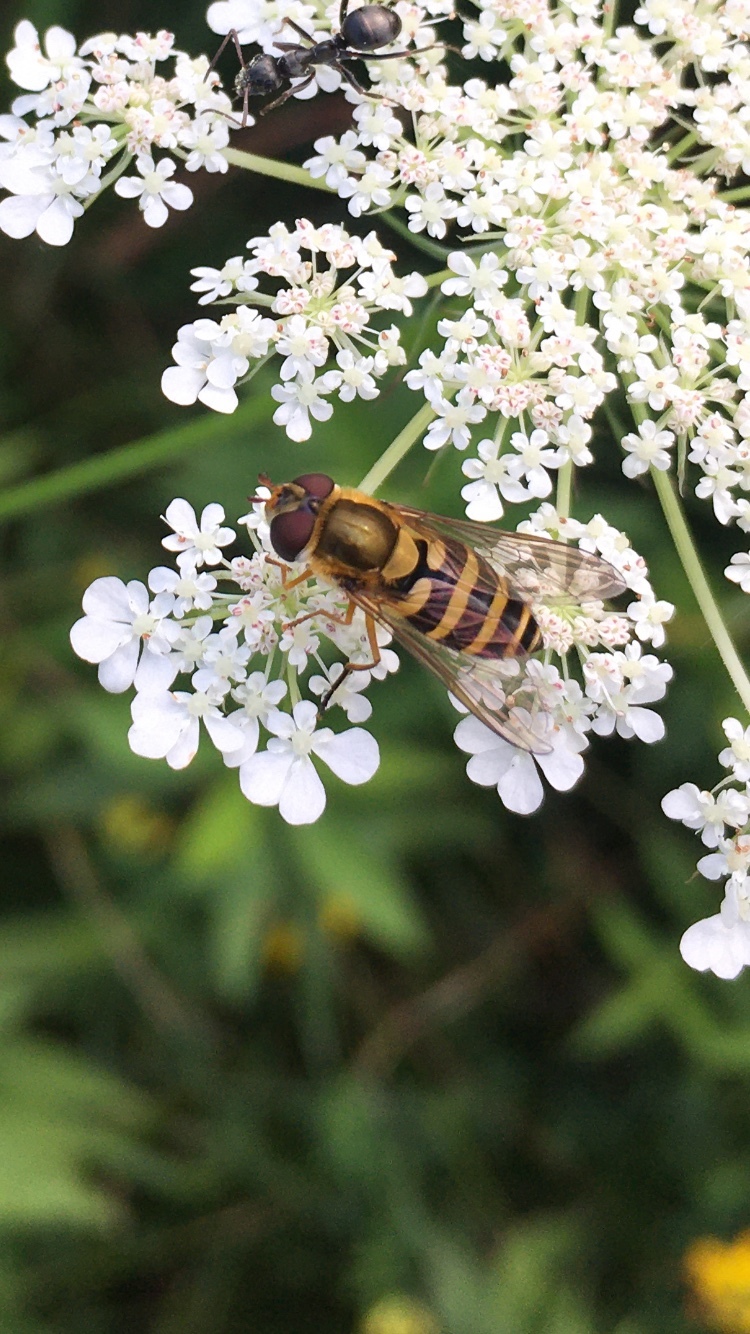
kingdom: Animalia
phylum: Arthropoda
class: Insecta
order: Diptera
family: Syrphidae
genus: Syrphus
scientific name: Syrphus ribesii
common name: Common flower fly
